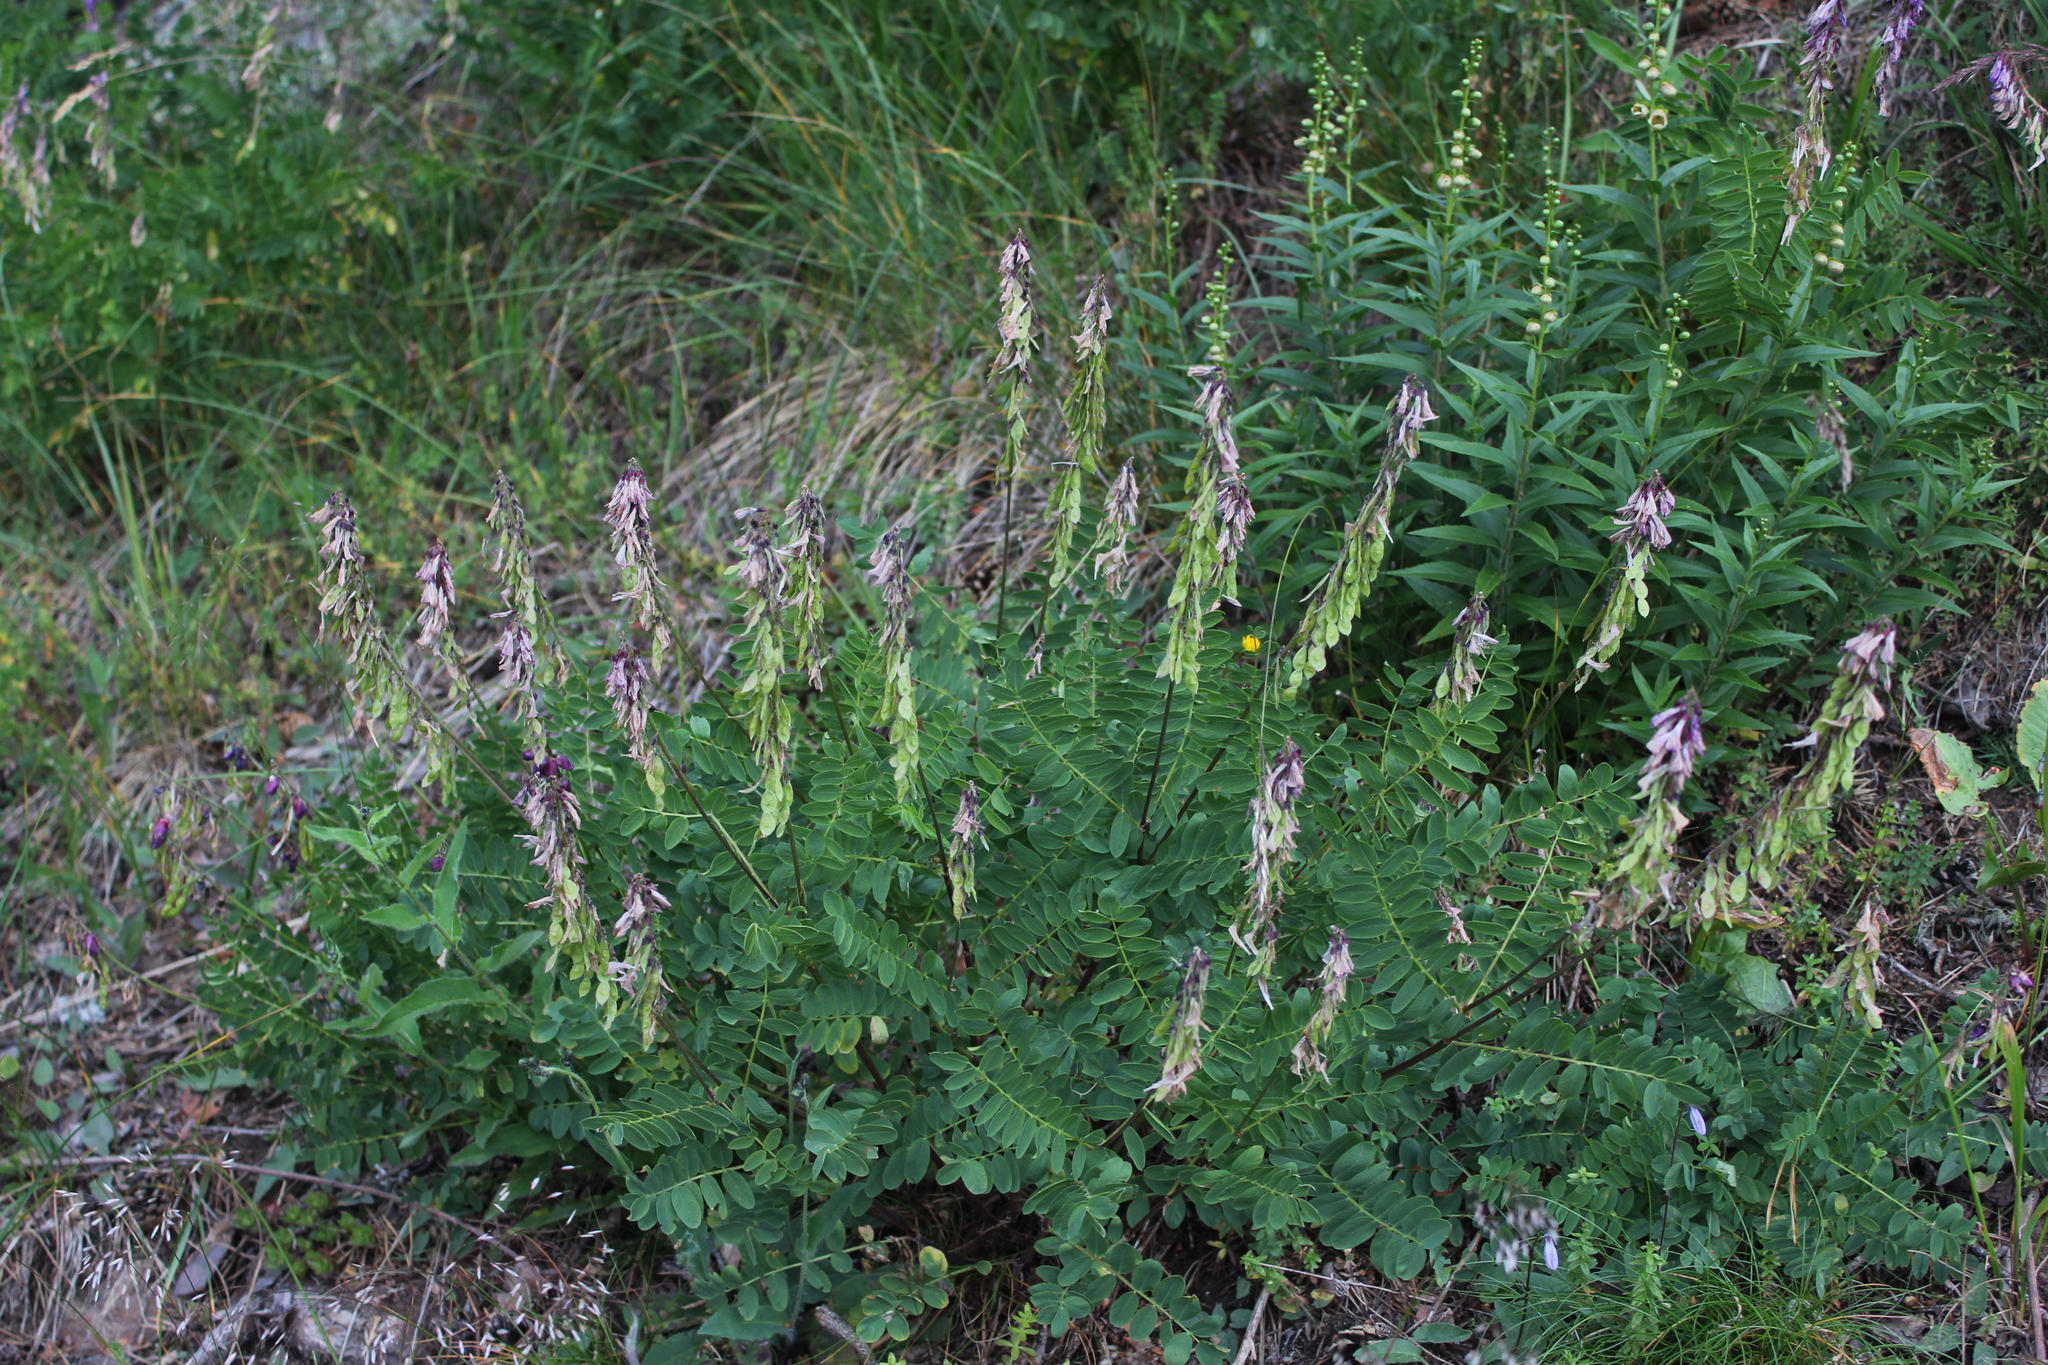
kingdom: Plantae
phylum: Tracheophyta
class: Magnoliopsida
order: Fabales
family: Fabaceae
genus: Hedysarum
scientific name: Hedysarum caucasicum
